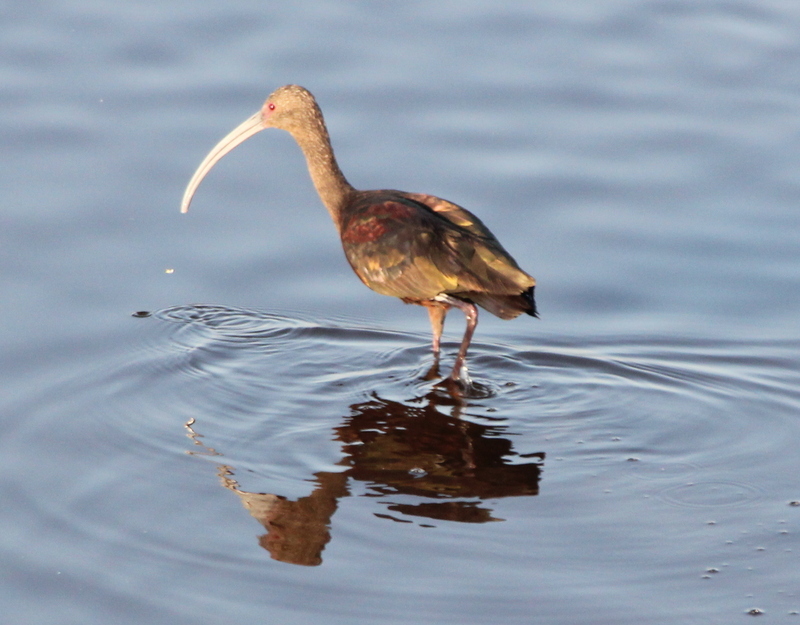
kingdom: Animalia
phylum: Chordata
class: Aves
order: Pelecaniformes
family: Threskiornithidae
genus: Plegadis
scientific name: Plegadis chihi
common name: White-faced ibis
